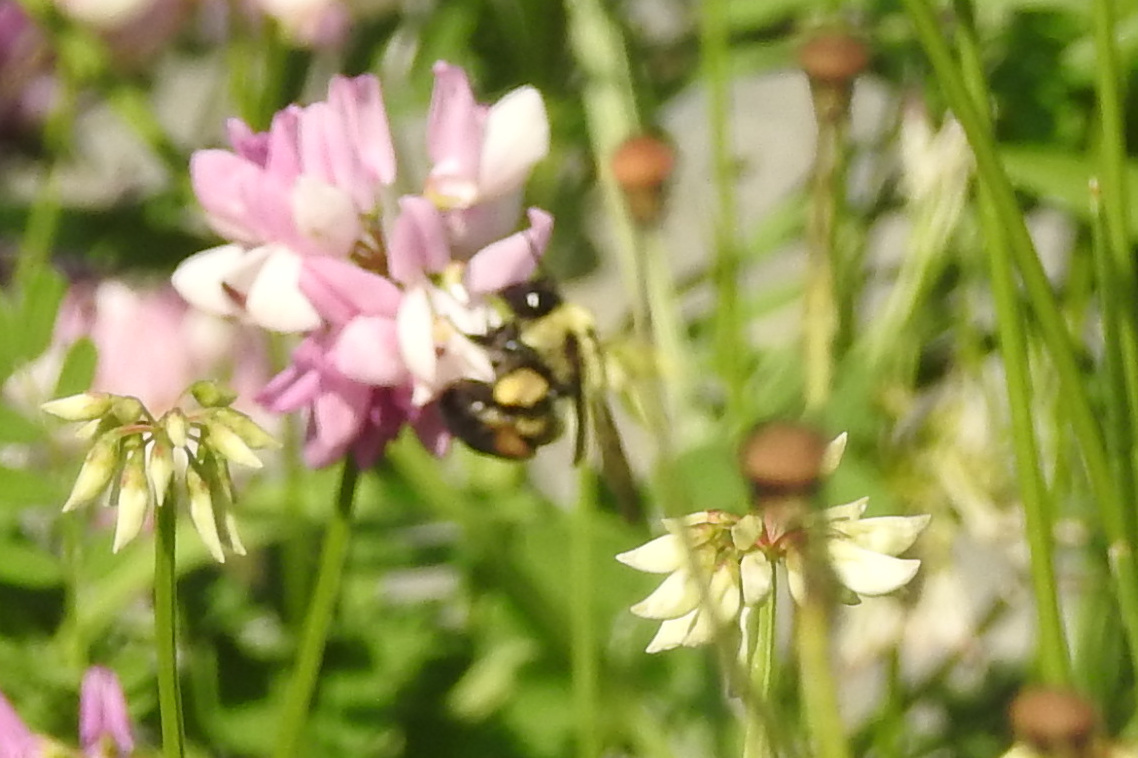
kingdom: Animalia
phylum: Arthropoda
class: Insecta
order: Hymenoptera
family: Apidae
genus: Bombus
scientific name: Bombus griseocollis
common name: Brown-belted bumble bee
